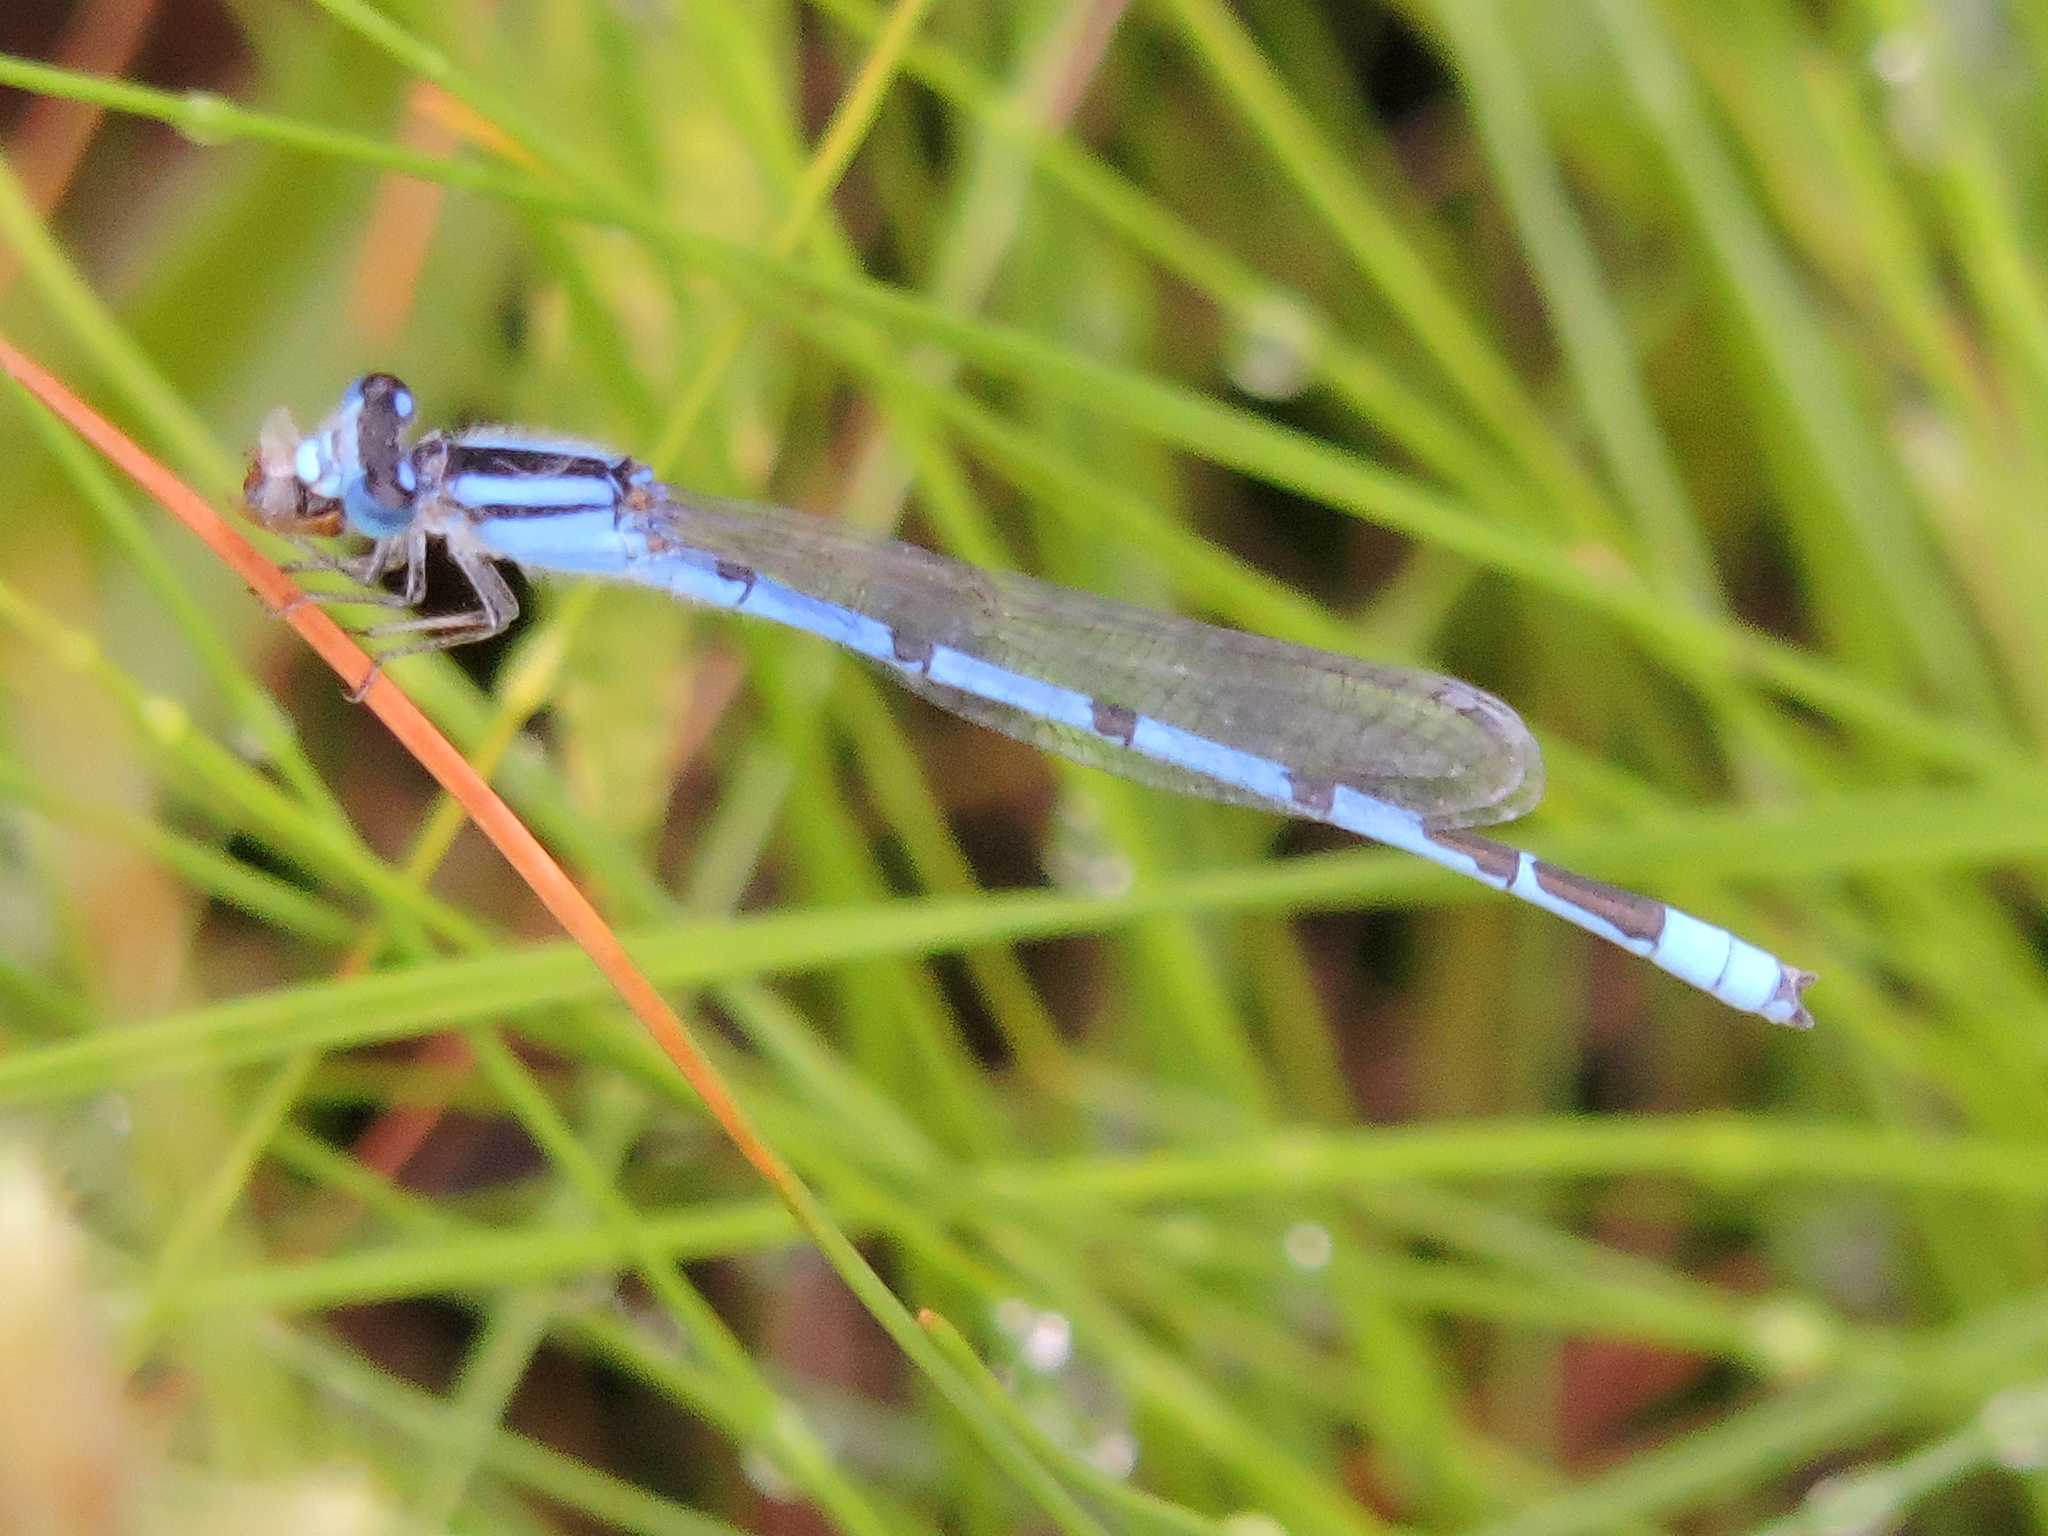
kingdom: Animalia
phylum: Arthropoda
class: Insecta
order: Odonata
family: Coenagrionidae
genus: Enallagma
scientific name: Enallagma civile
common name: Damselfly
